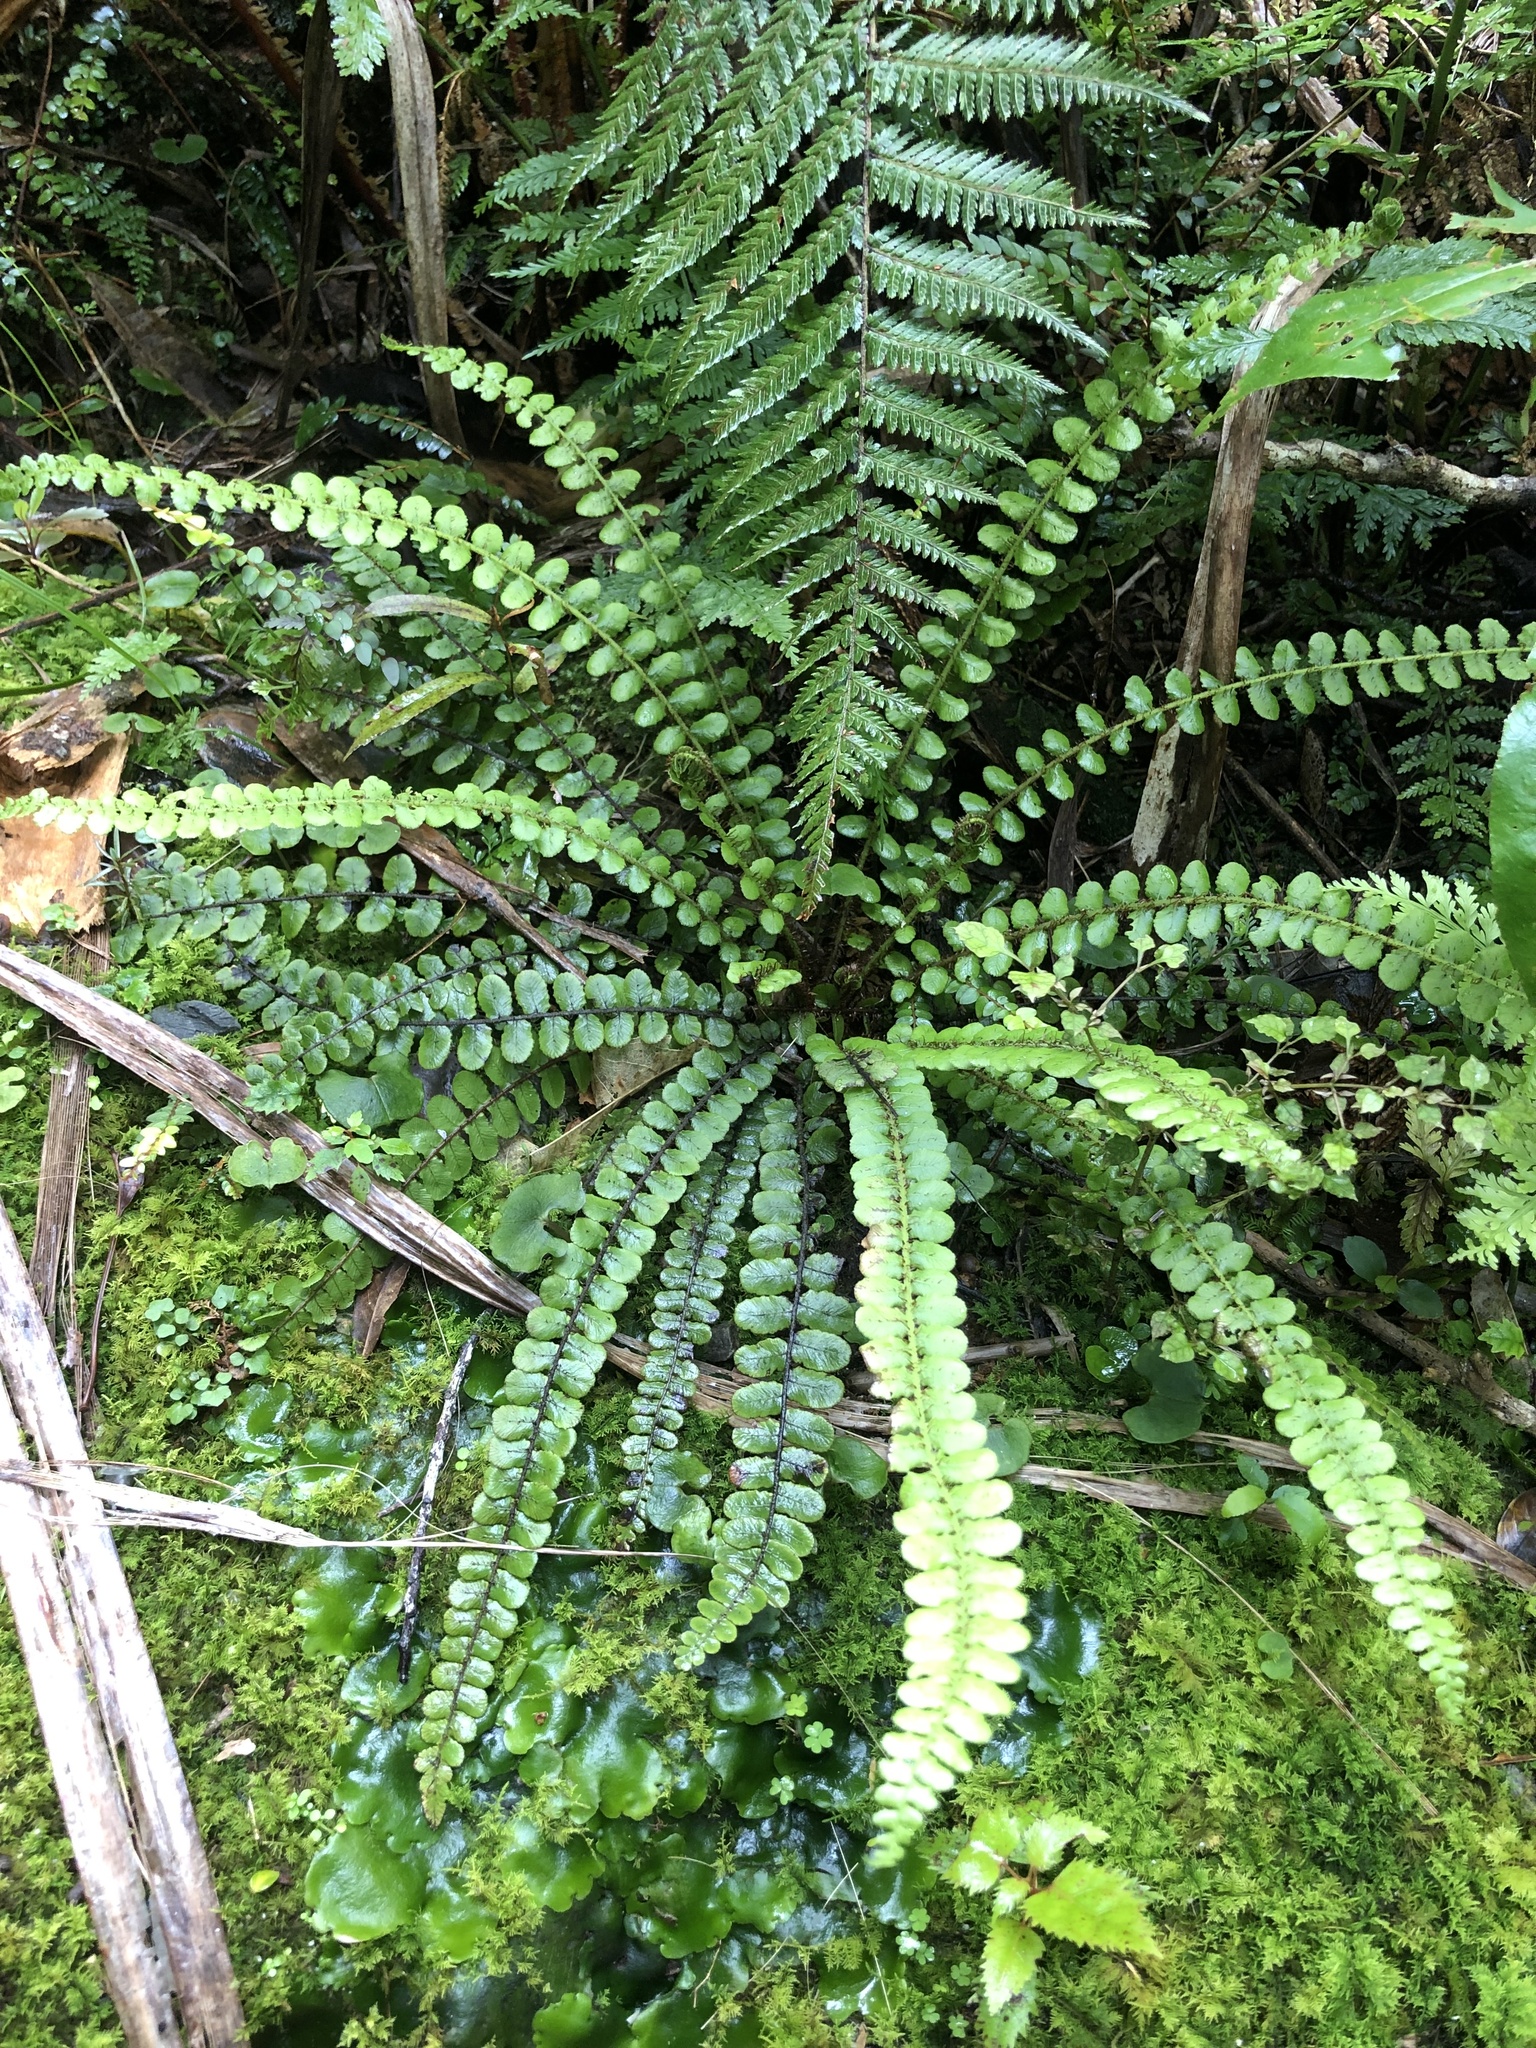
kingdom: Plantae
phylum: Tracheophyta
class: Polypodiopsida
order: Polypodiales
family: Blechnaceae
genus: Cranfillia
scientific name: Cranfillia fluviatilis
